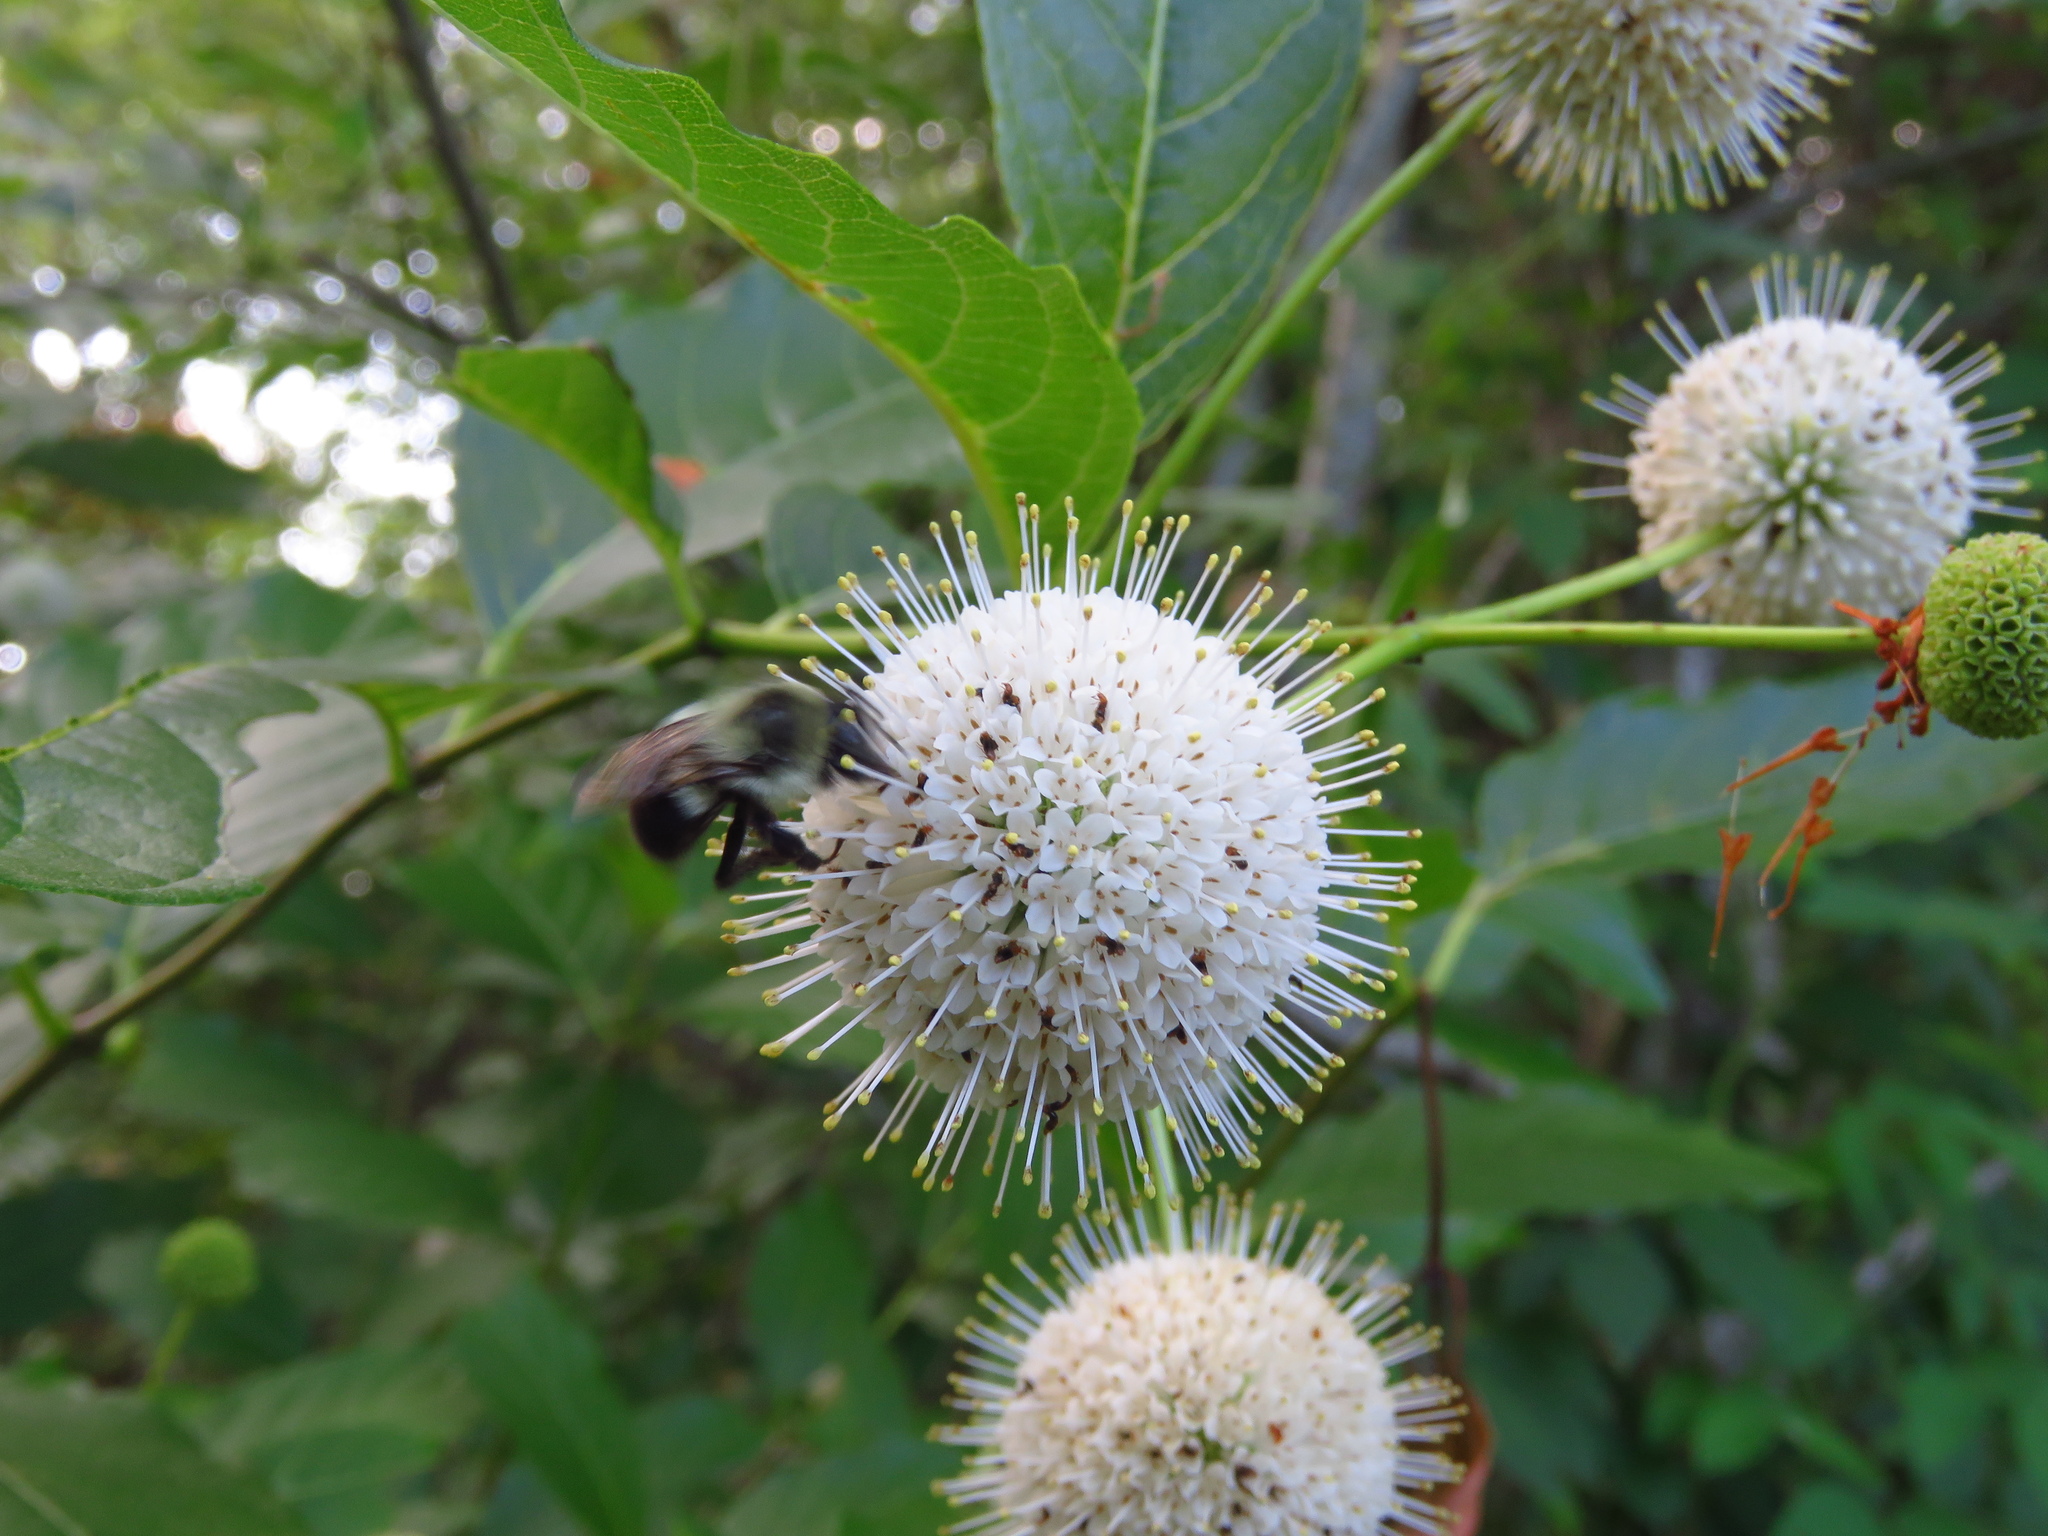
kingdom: Plantae
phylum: Tracheophyta
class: Magnoliopsida
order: Gentianales
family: Rubiaceae
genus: Cephalanthus
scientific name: Cephalanthus occidentalis
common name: Button-willow
